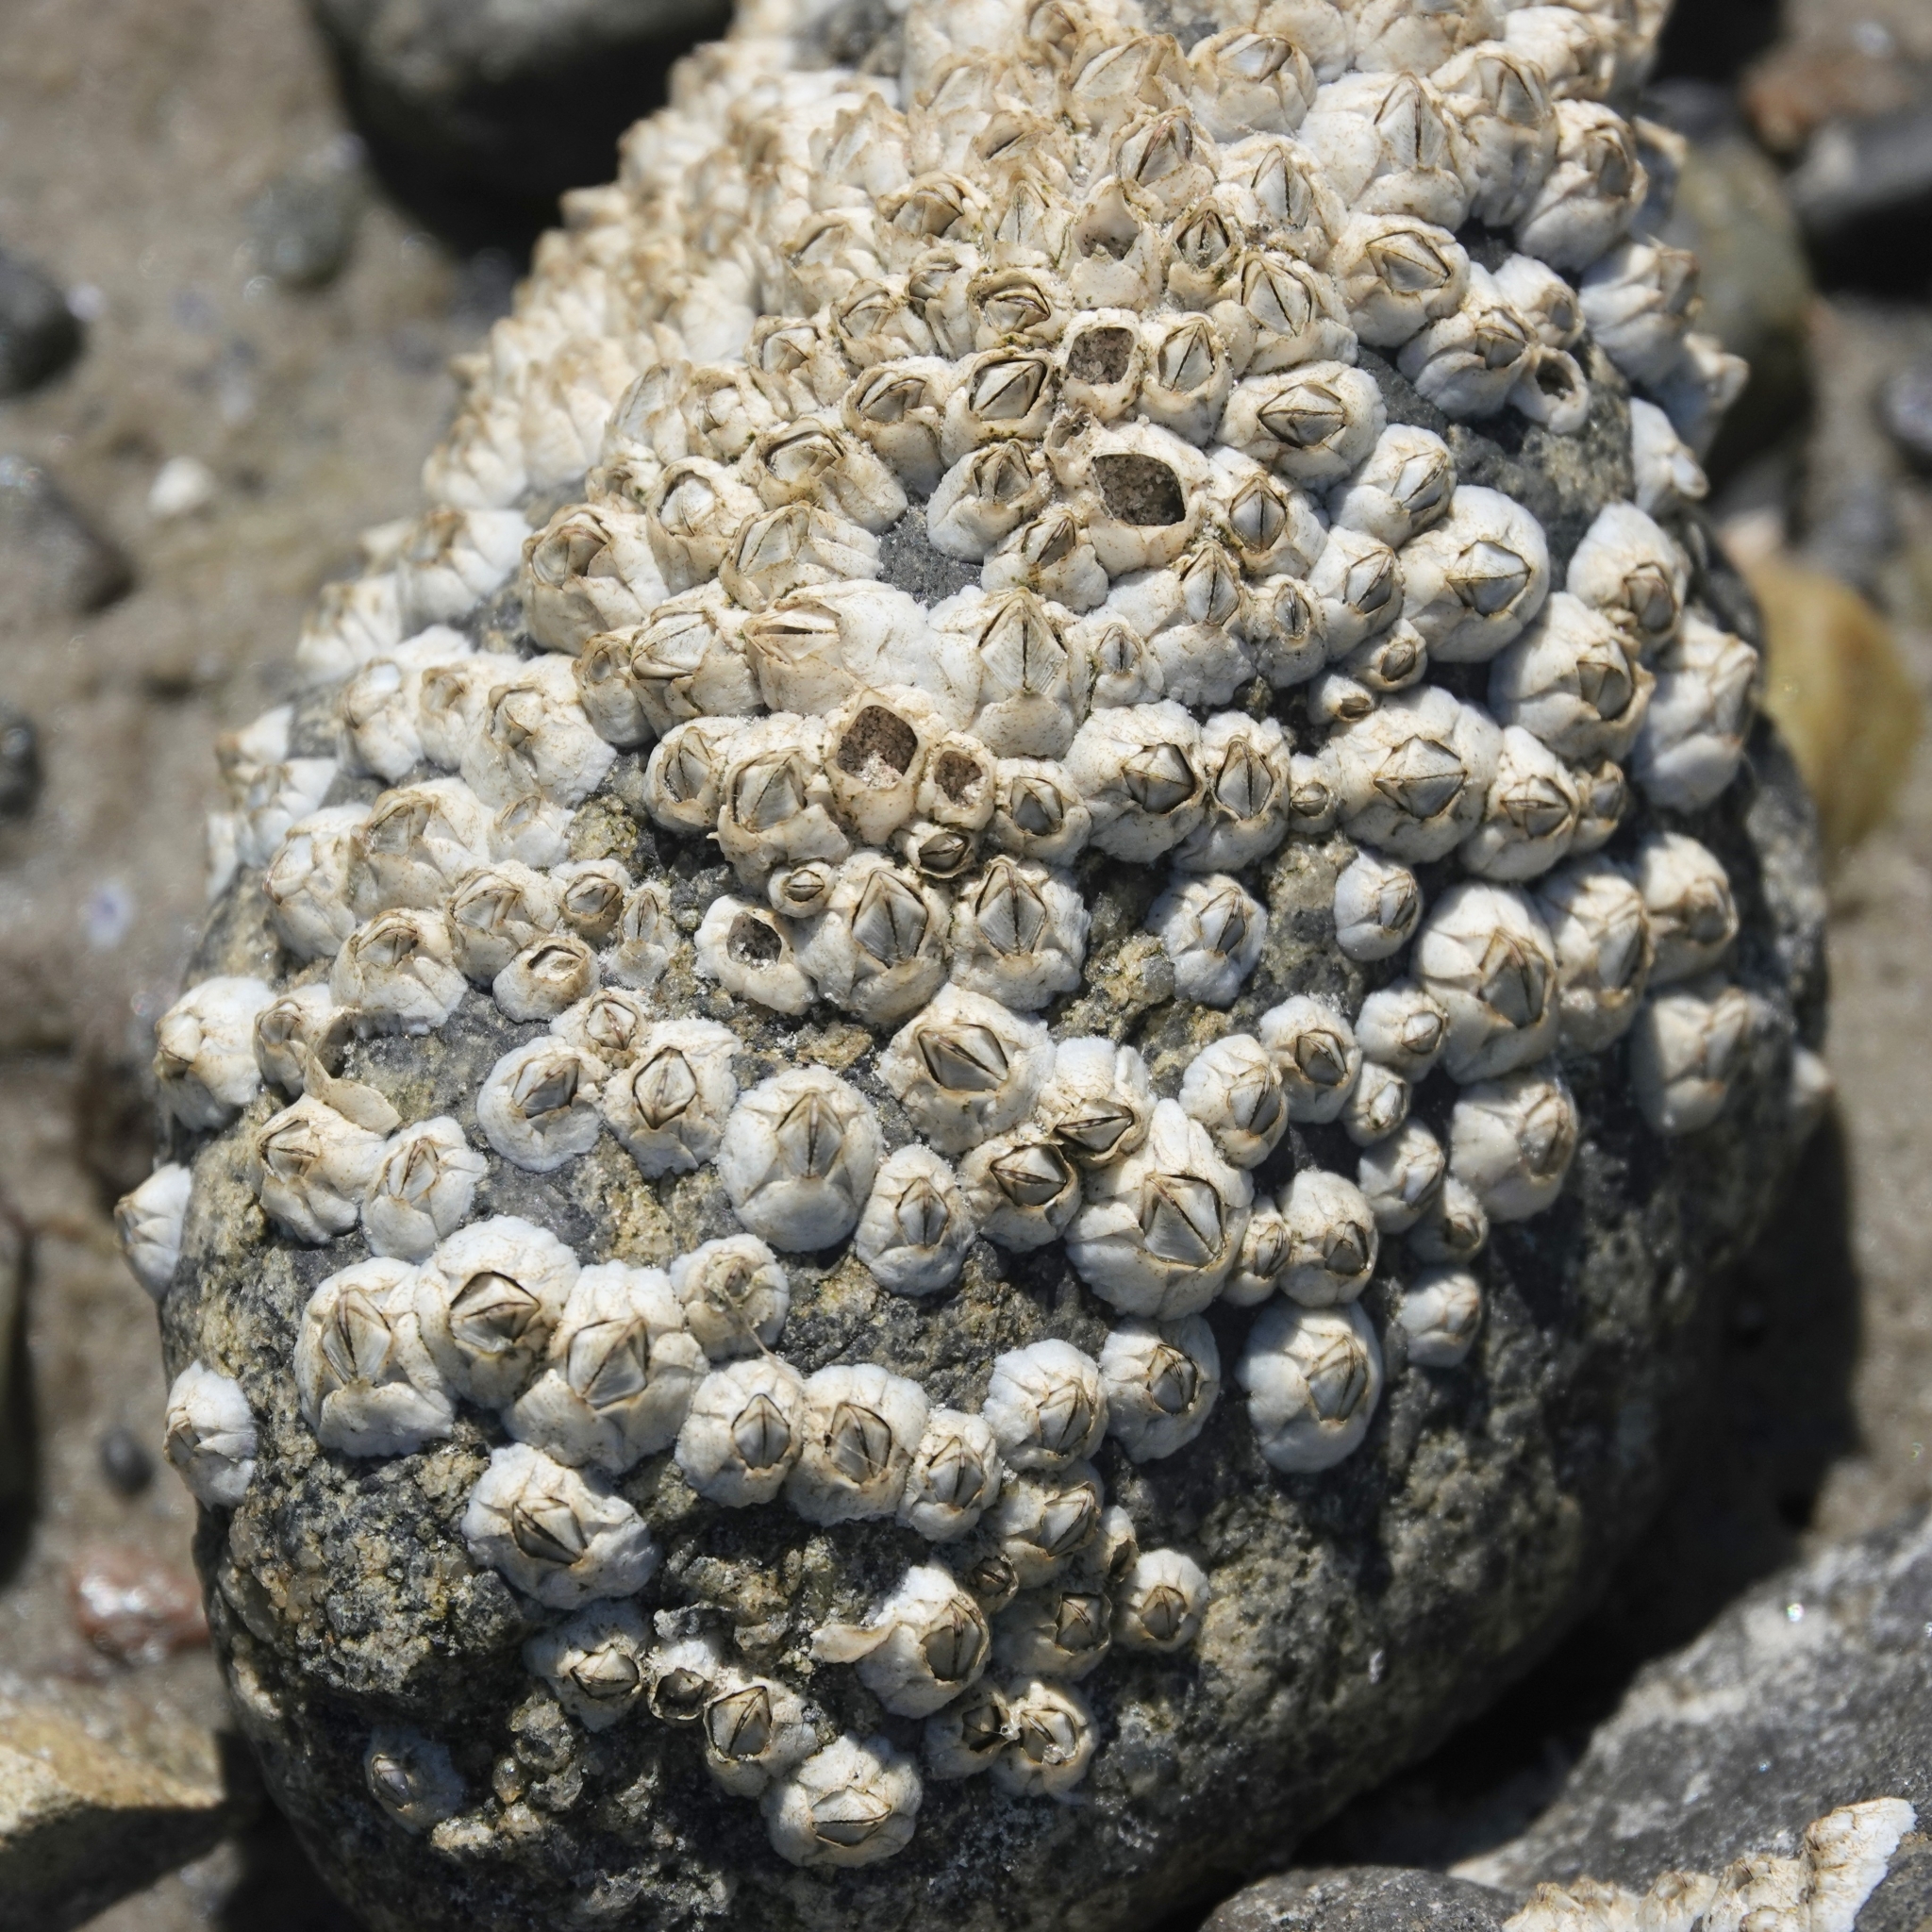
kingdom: Animalia
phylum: Arthropoda
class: Maxillopoda
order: Sessilia
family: Balanidae
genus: Balanus
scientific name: Balanus crenatus
